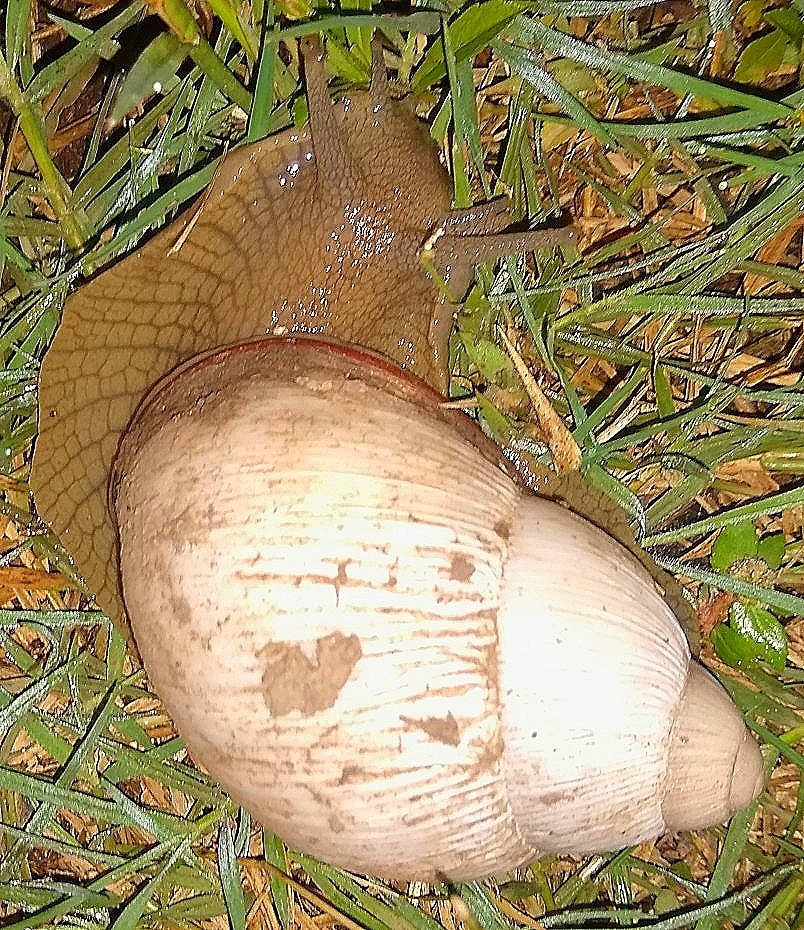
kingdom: Animalia
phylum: Mollusca
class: Gastropoda
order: Stylommatophora
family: Strophocheilidae
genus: Megalobulimus
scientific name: Megalobulimus
